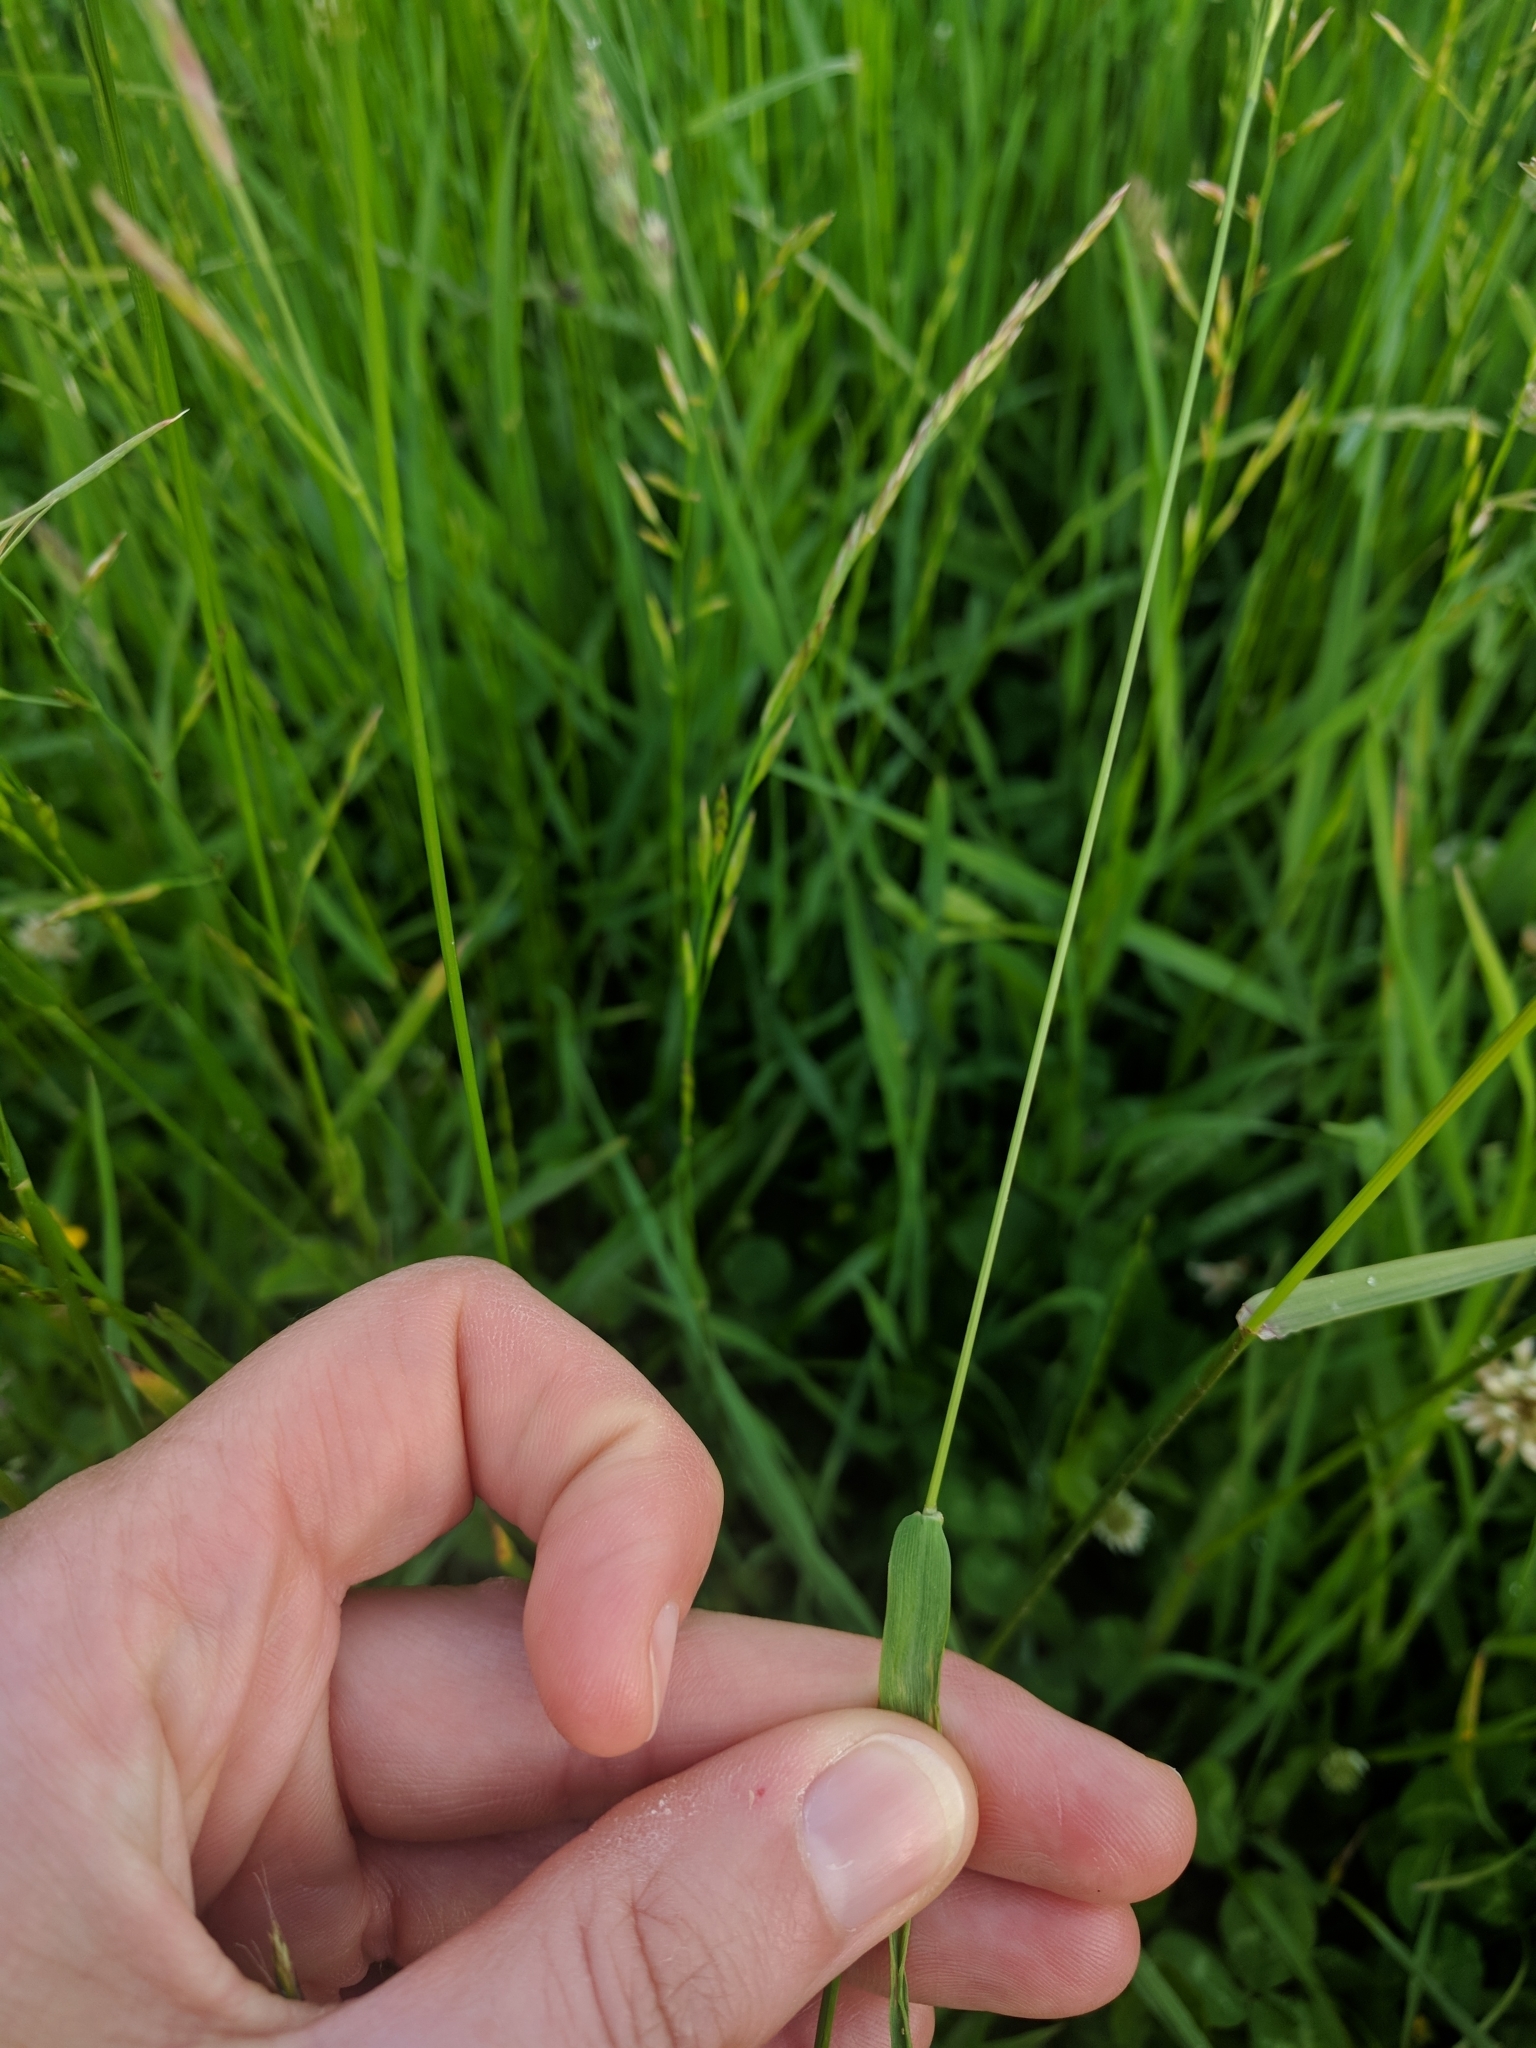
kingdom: Plantae
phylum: Tracheophyta
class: Liliopsida
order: Poales
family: Poaceae
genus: Trisetum
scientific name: Trisetum flavescens
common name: Yellow oat-grass
